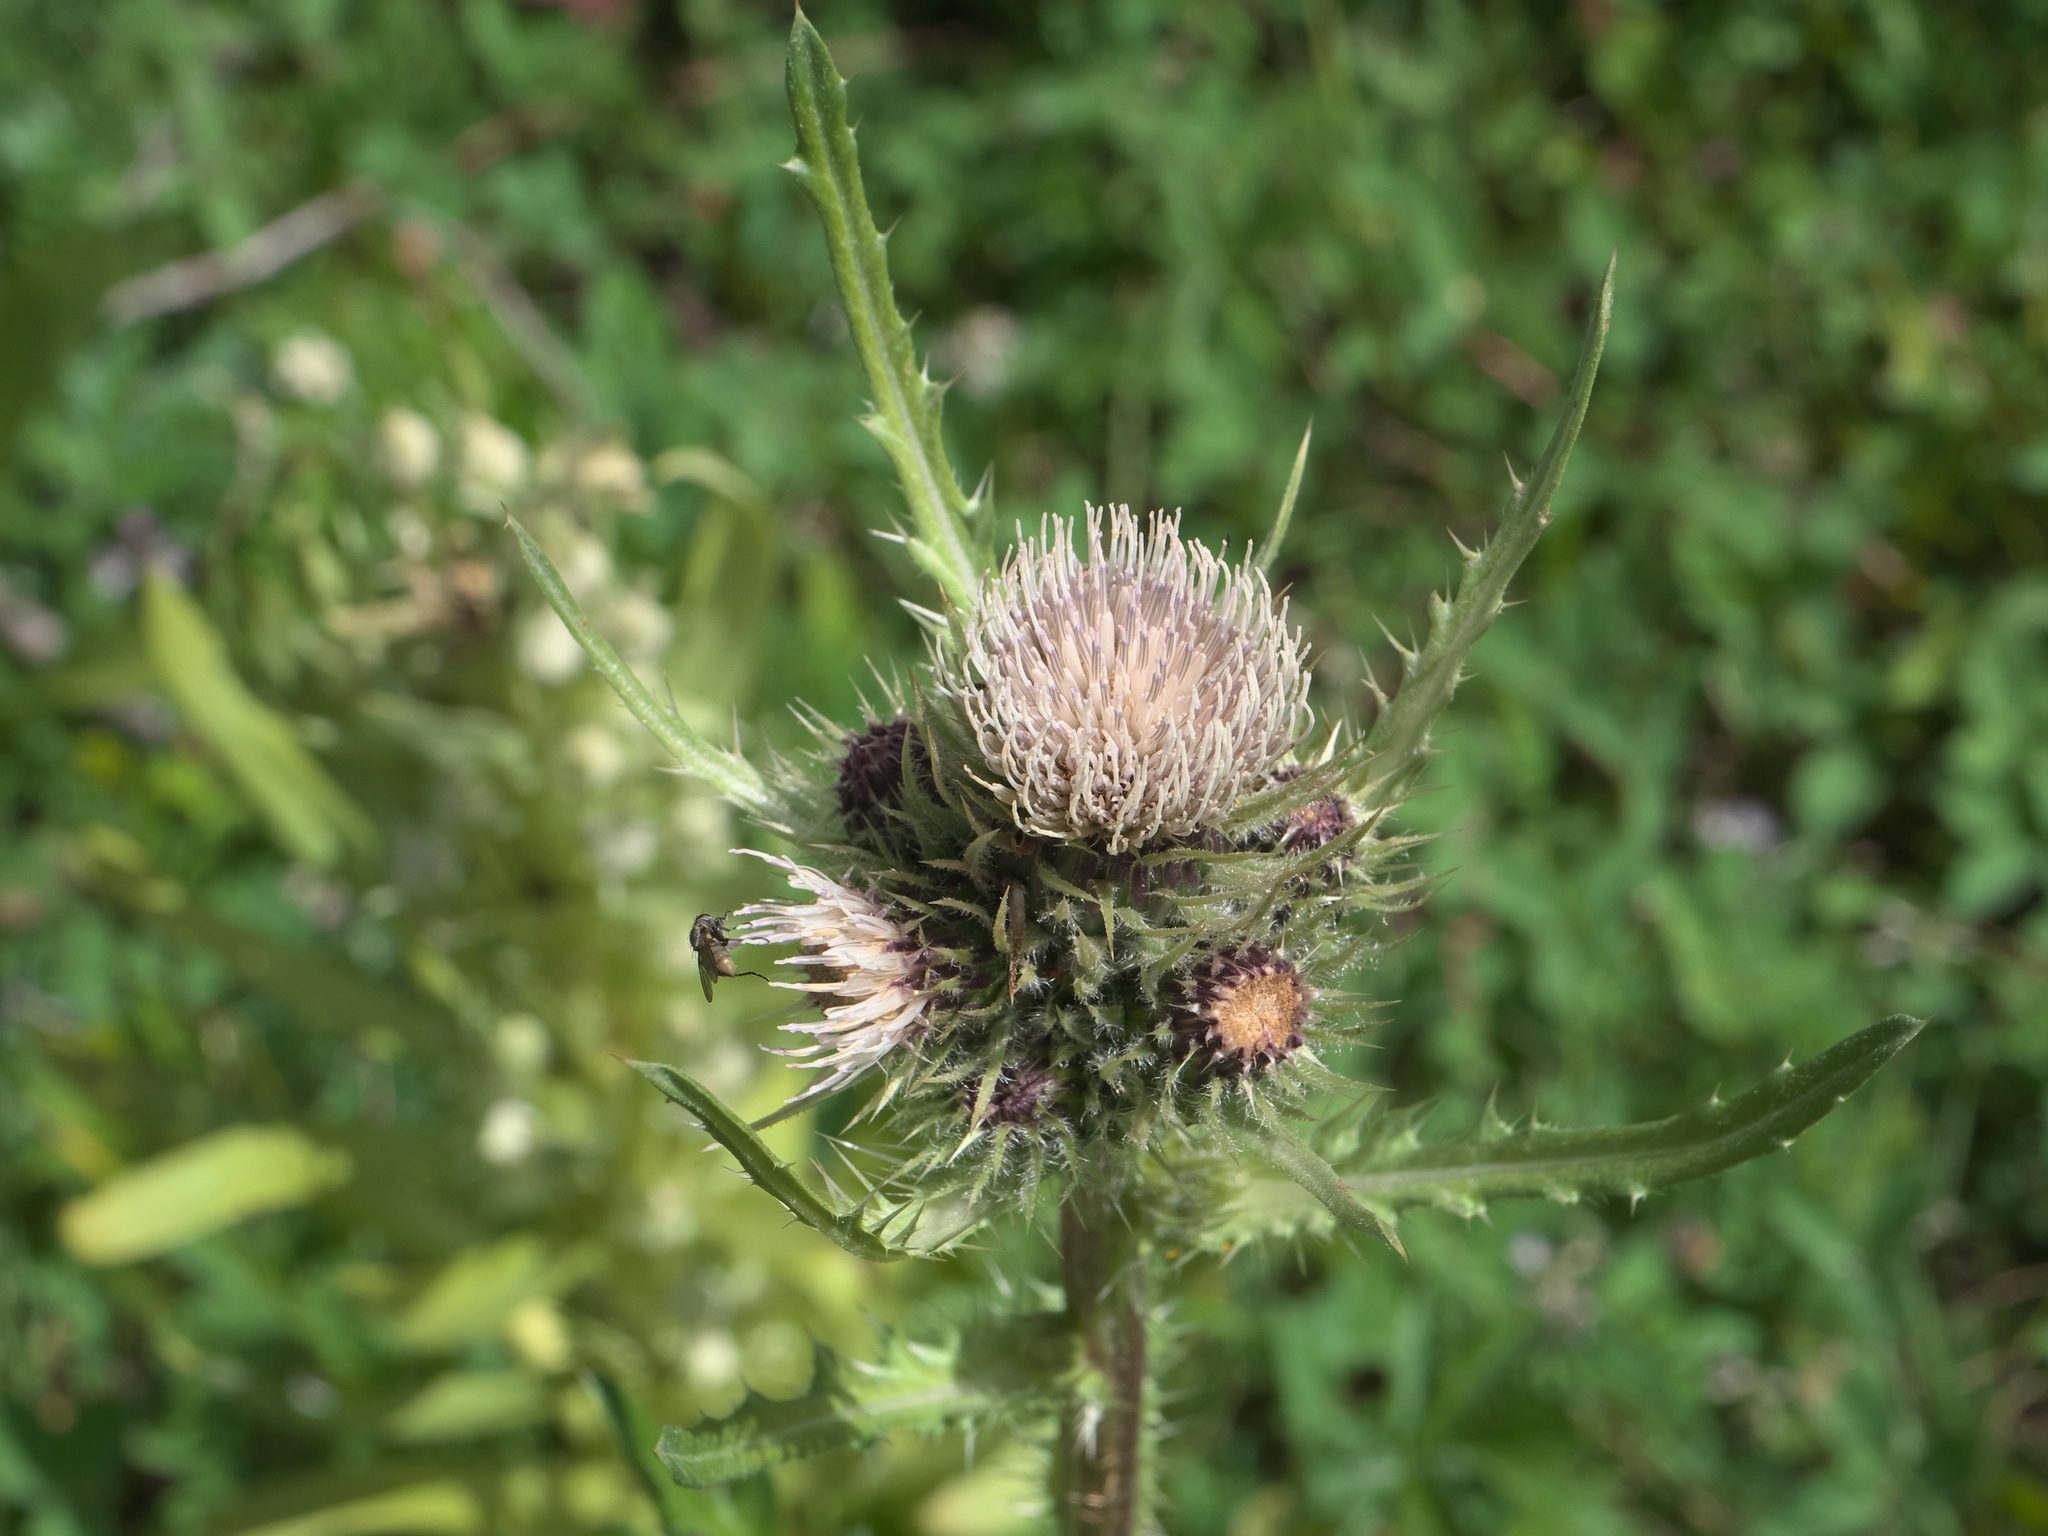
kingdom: Plantae
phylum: Tracheophyta
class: Magnoliopsida
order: Asterales
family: Asteraceae
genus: Cirsium
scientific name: Cirsium griseum
